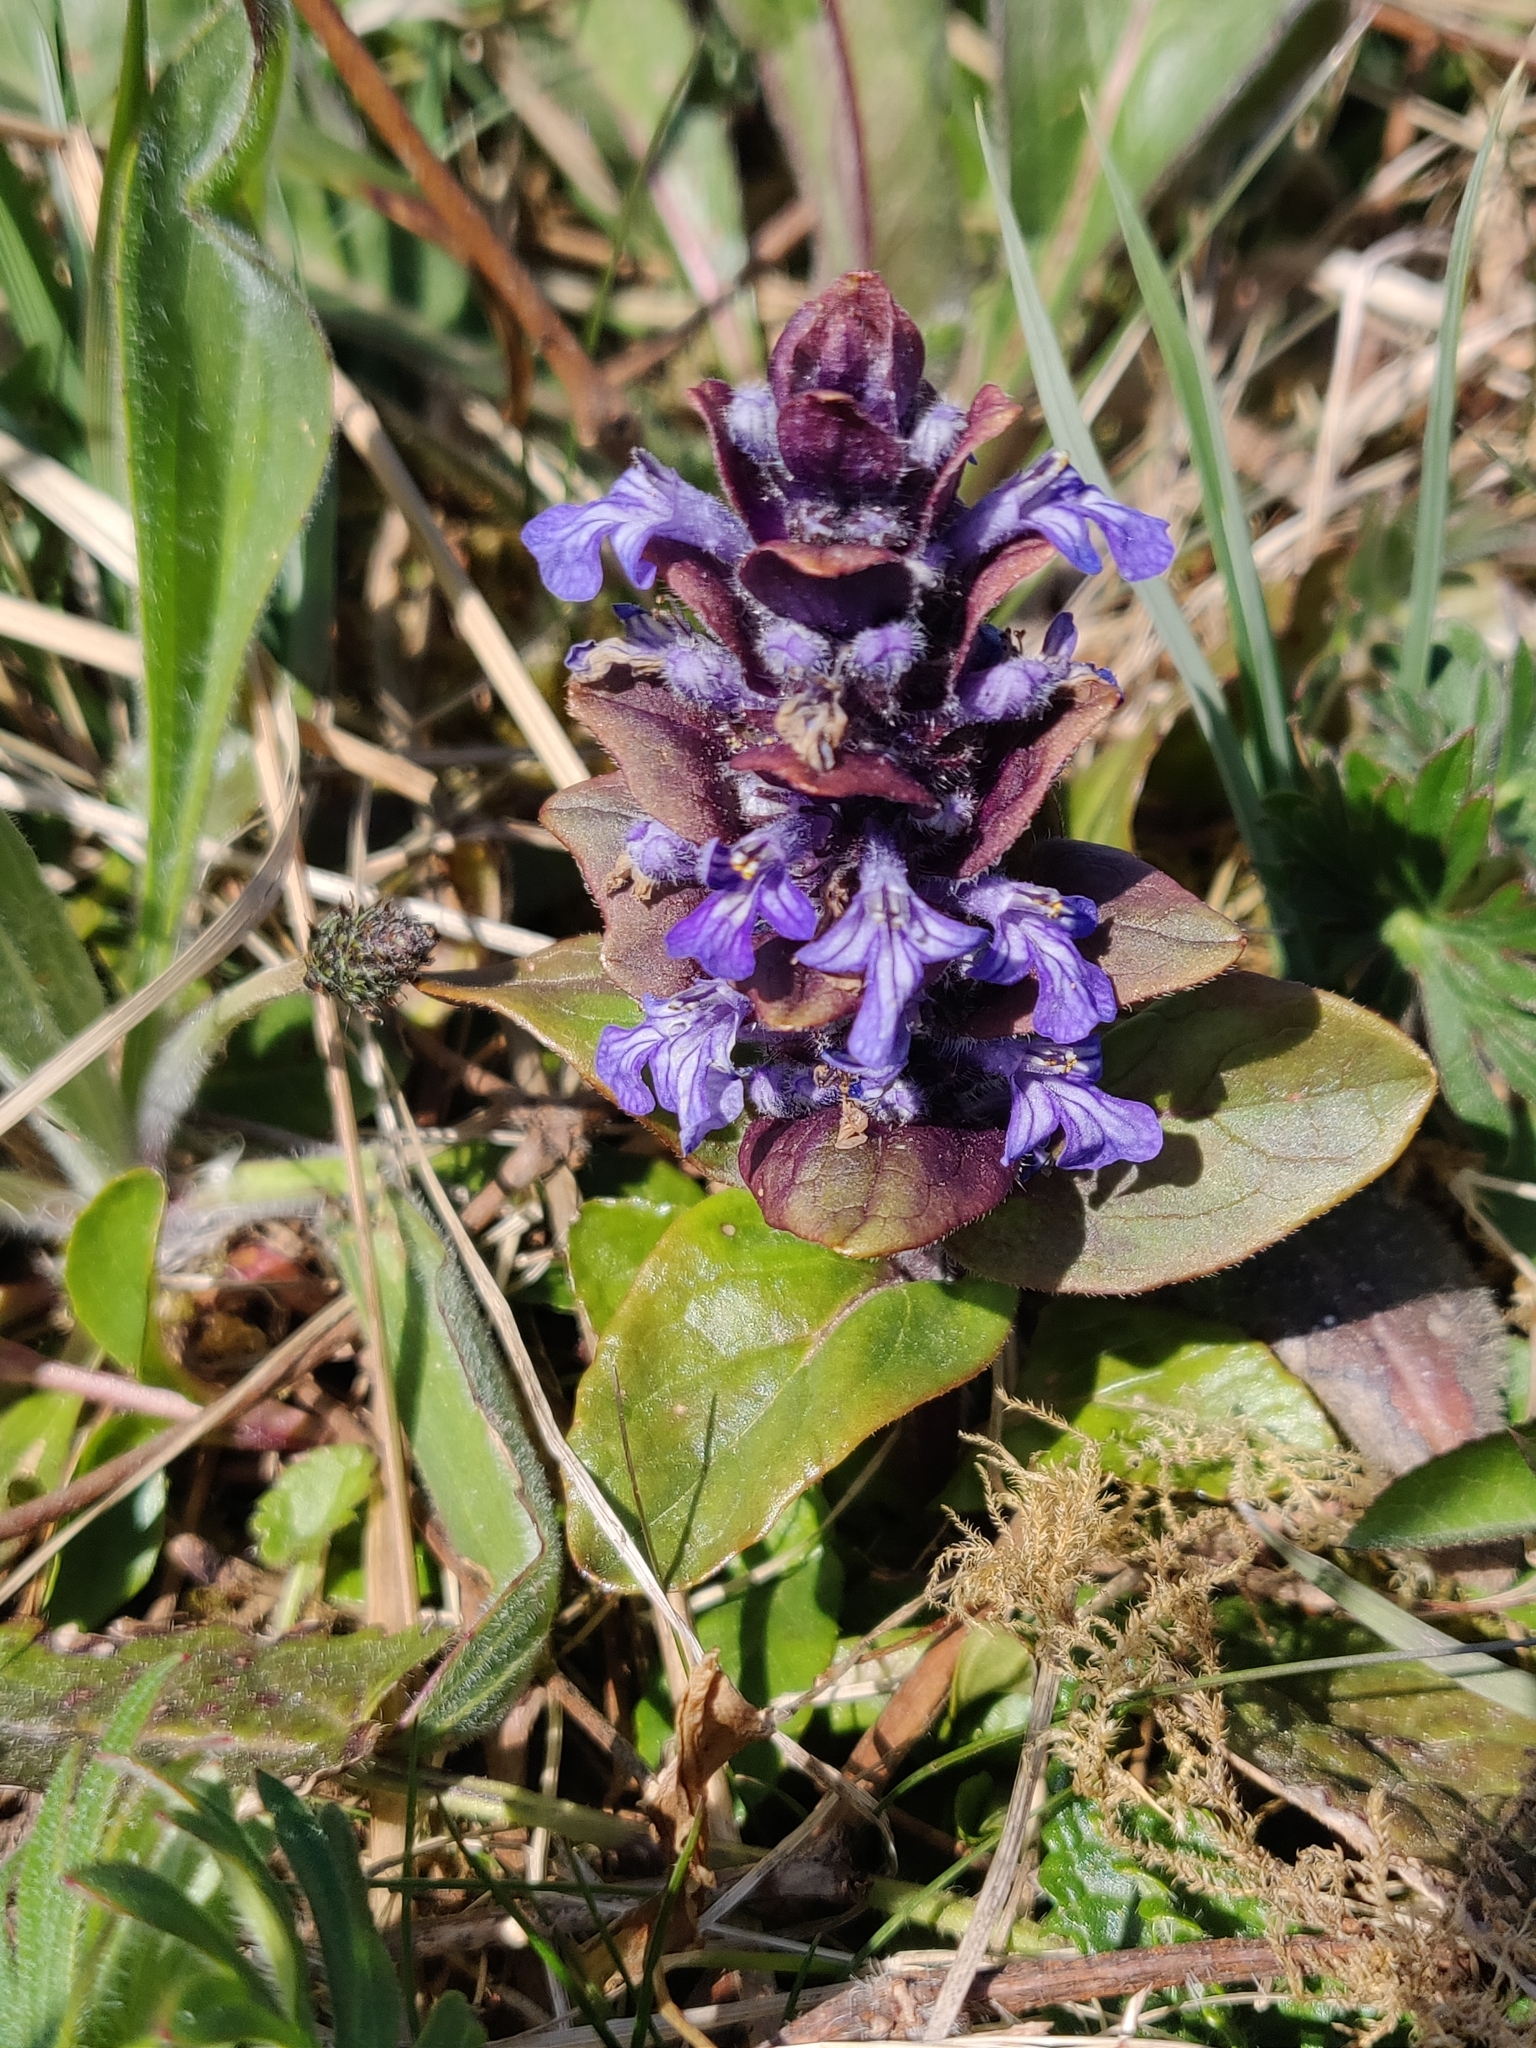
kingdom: Plantae
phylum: Tracheophyta
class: Magnoliopsida
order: Lamiales
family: Lamiaceae
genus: Ajuga
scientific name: Ajuga reptans
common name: Bugle
